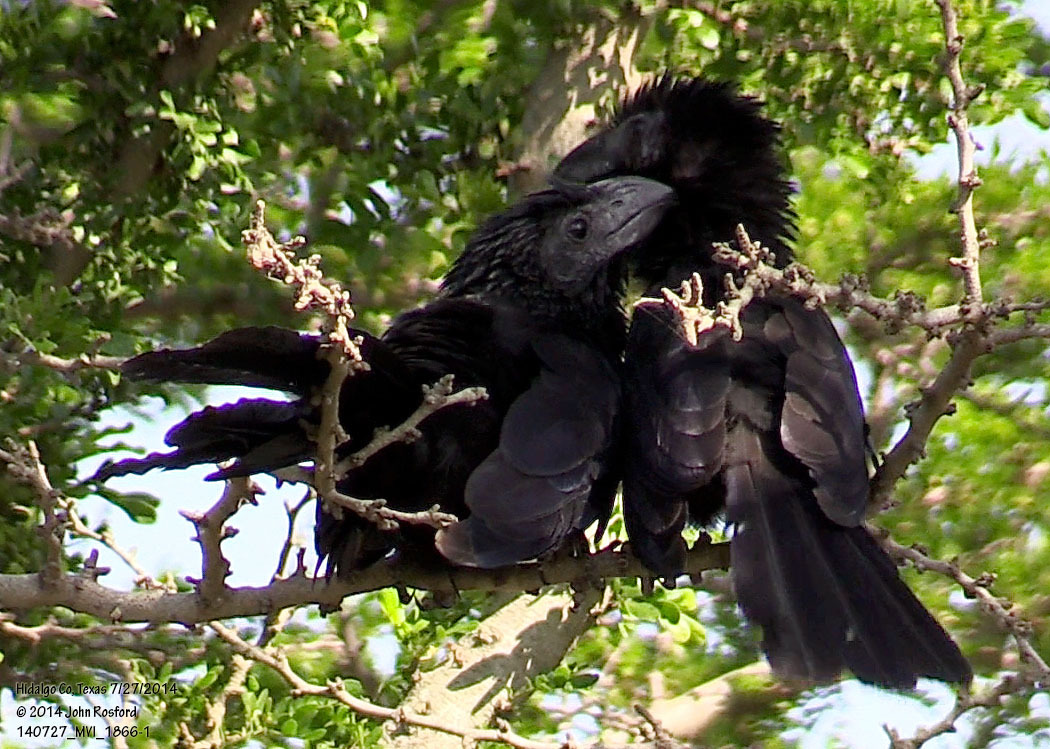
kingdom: Animalia
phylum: Chordata
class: Aves
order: Cuculiformes
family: Cuculidae
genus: Crotophaga
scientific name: Crotophaga sulcirostris
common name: Groove-billed ani
